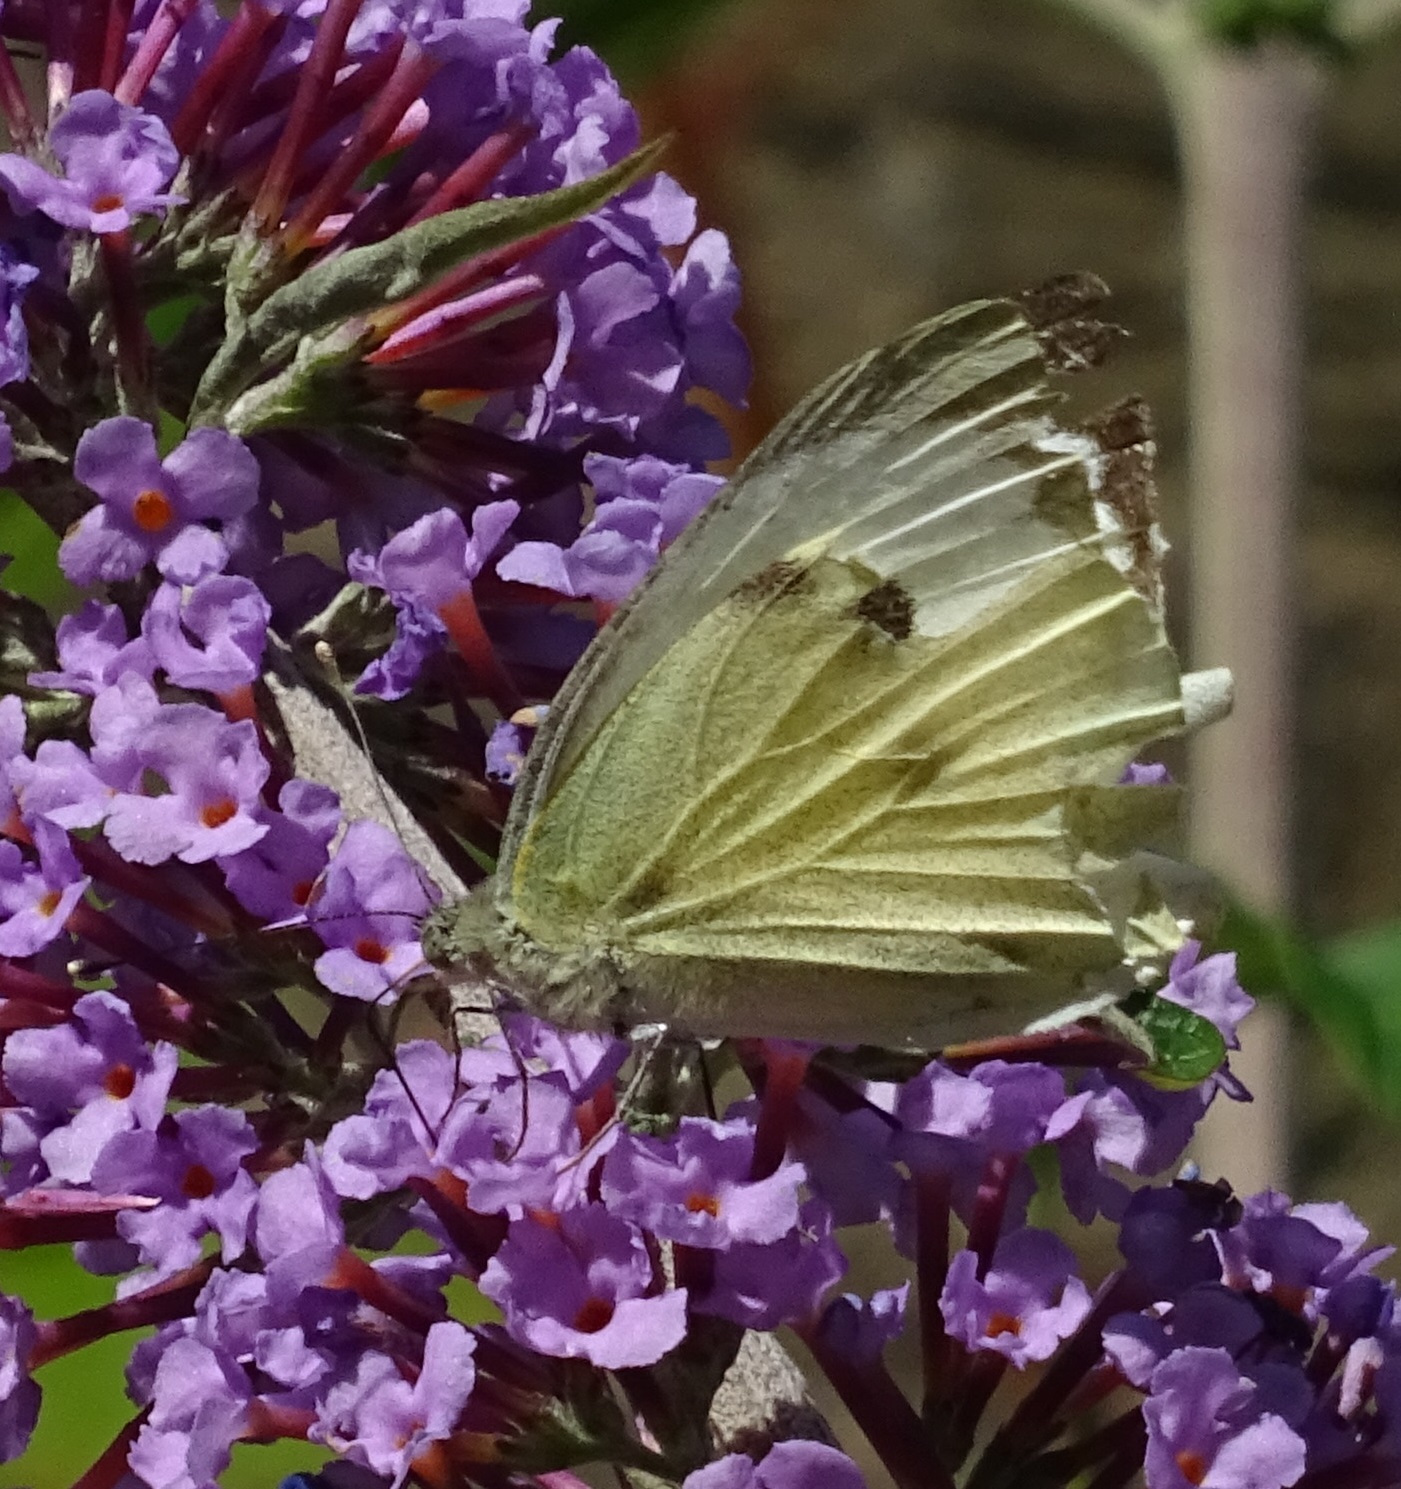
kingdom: Animalia
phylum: Arthropoda
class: Insecta
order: Lepidoptera
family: Pieridae
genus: Pieris
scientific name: Pieris brassicae
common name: Large white
